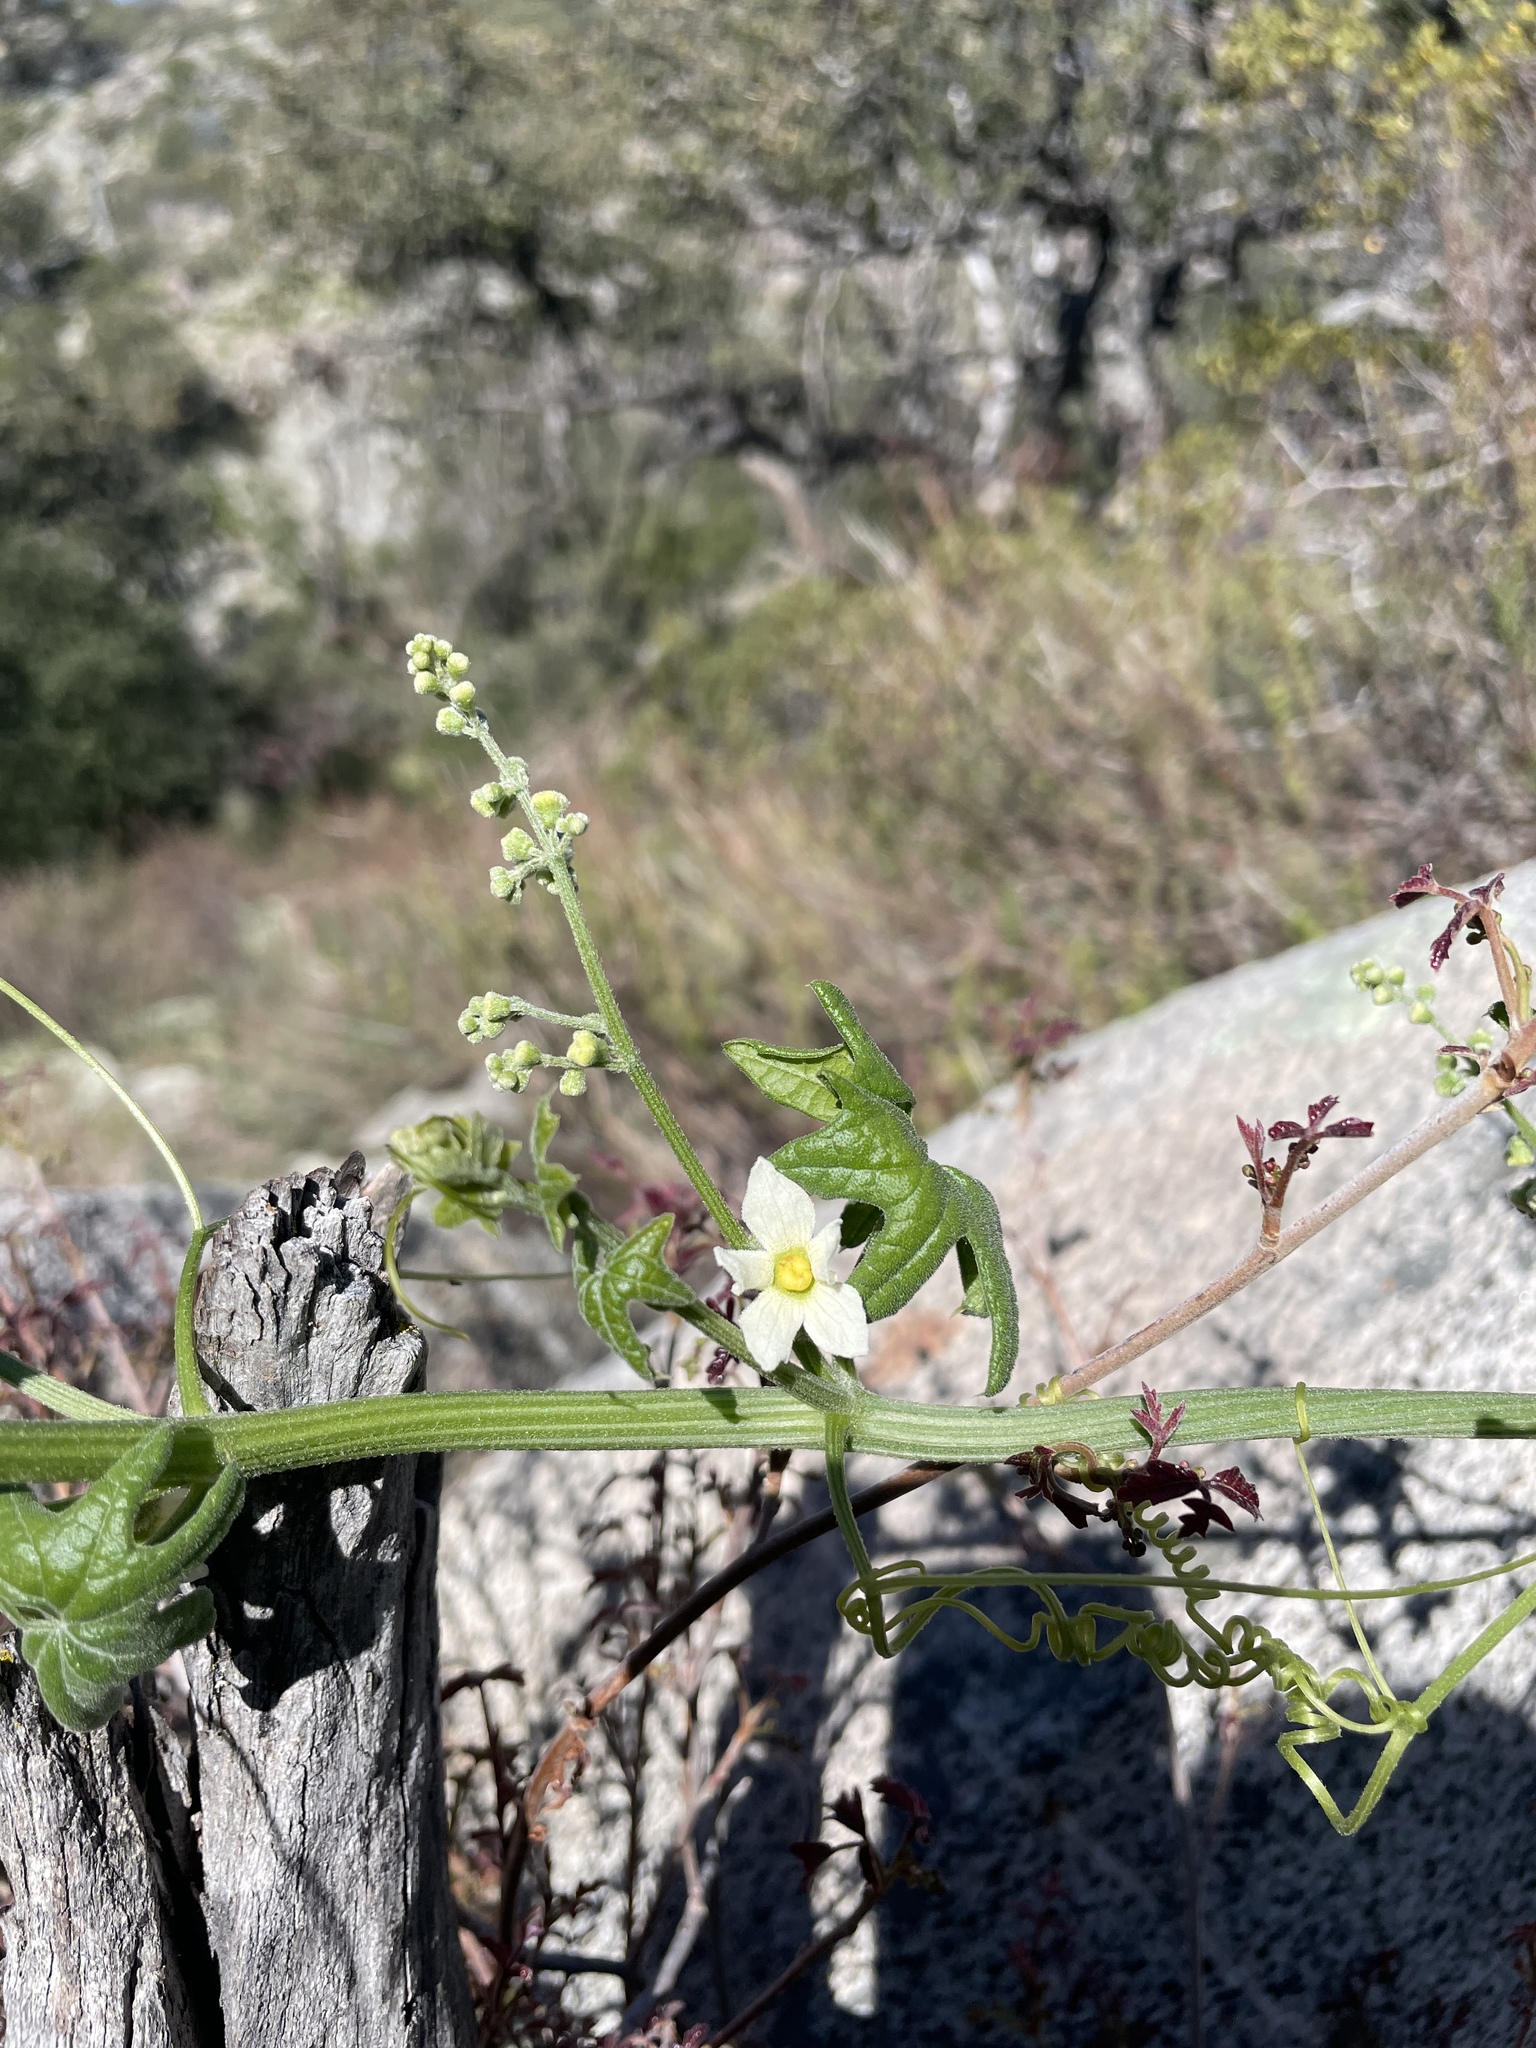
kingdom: Plantae
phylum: Tracheophyta
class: Magnoliopsida
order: Cucurbitales
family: Cucurbitaceae
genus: Marah
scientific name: Marah macrocarpa
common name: Cucamonga manroot
